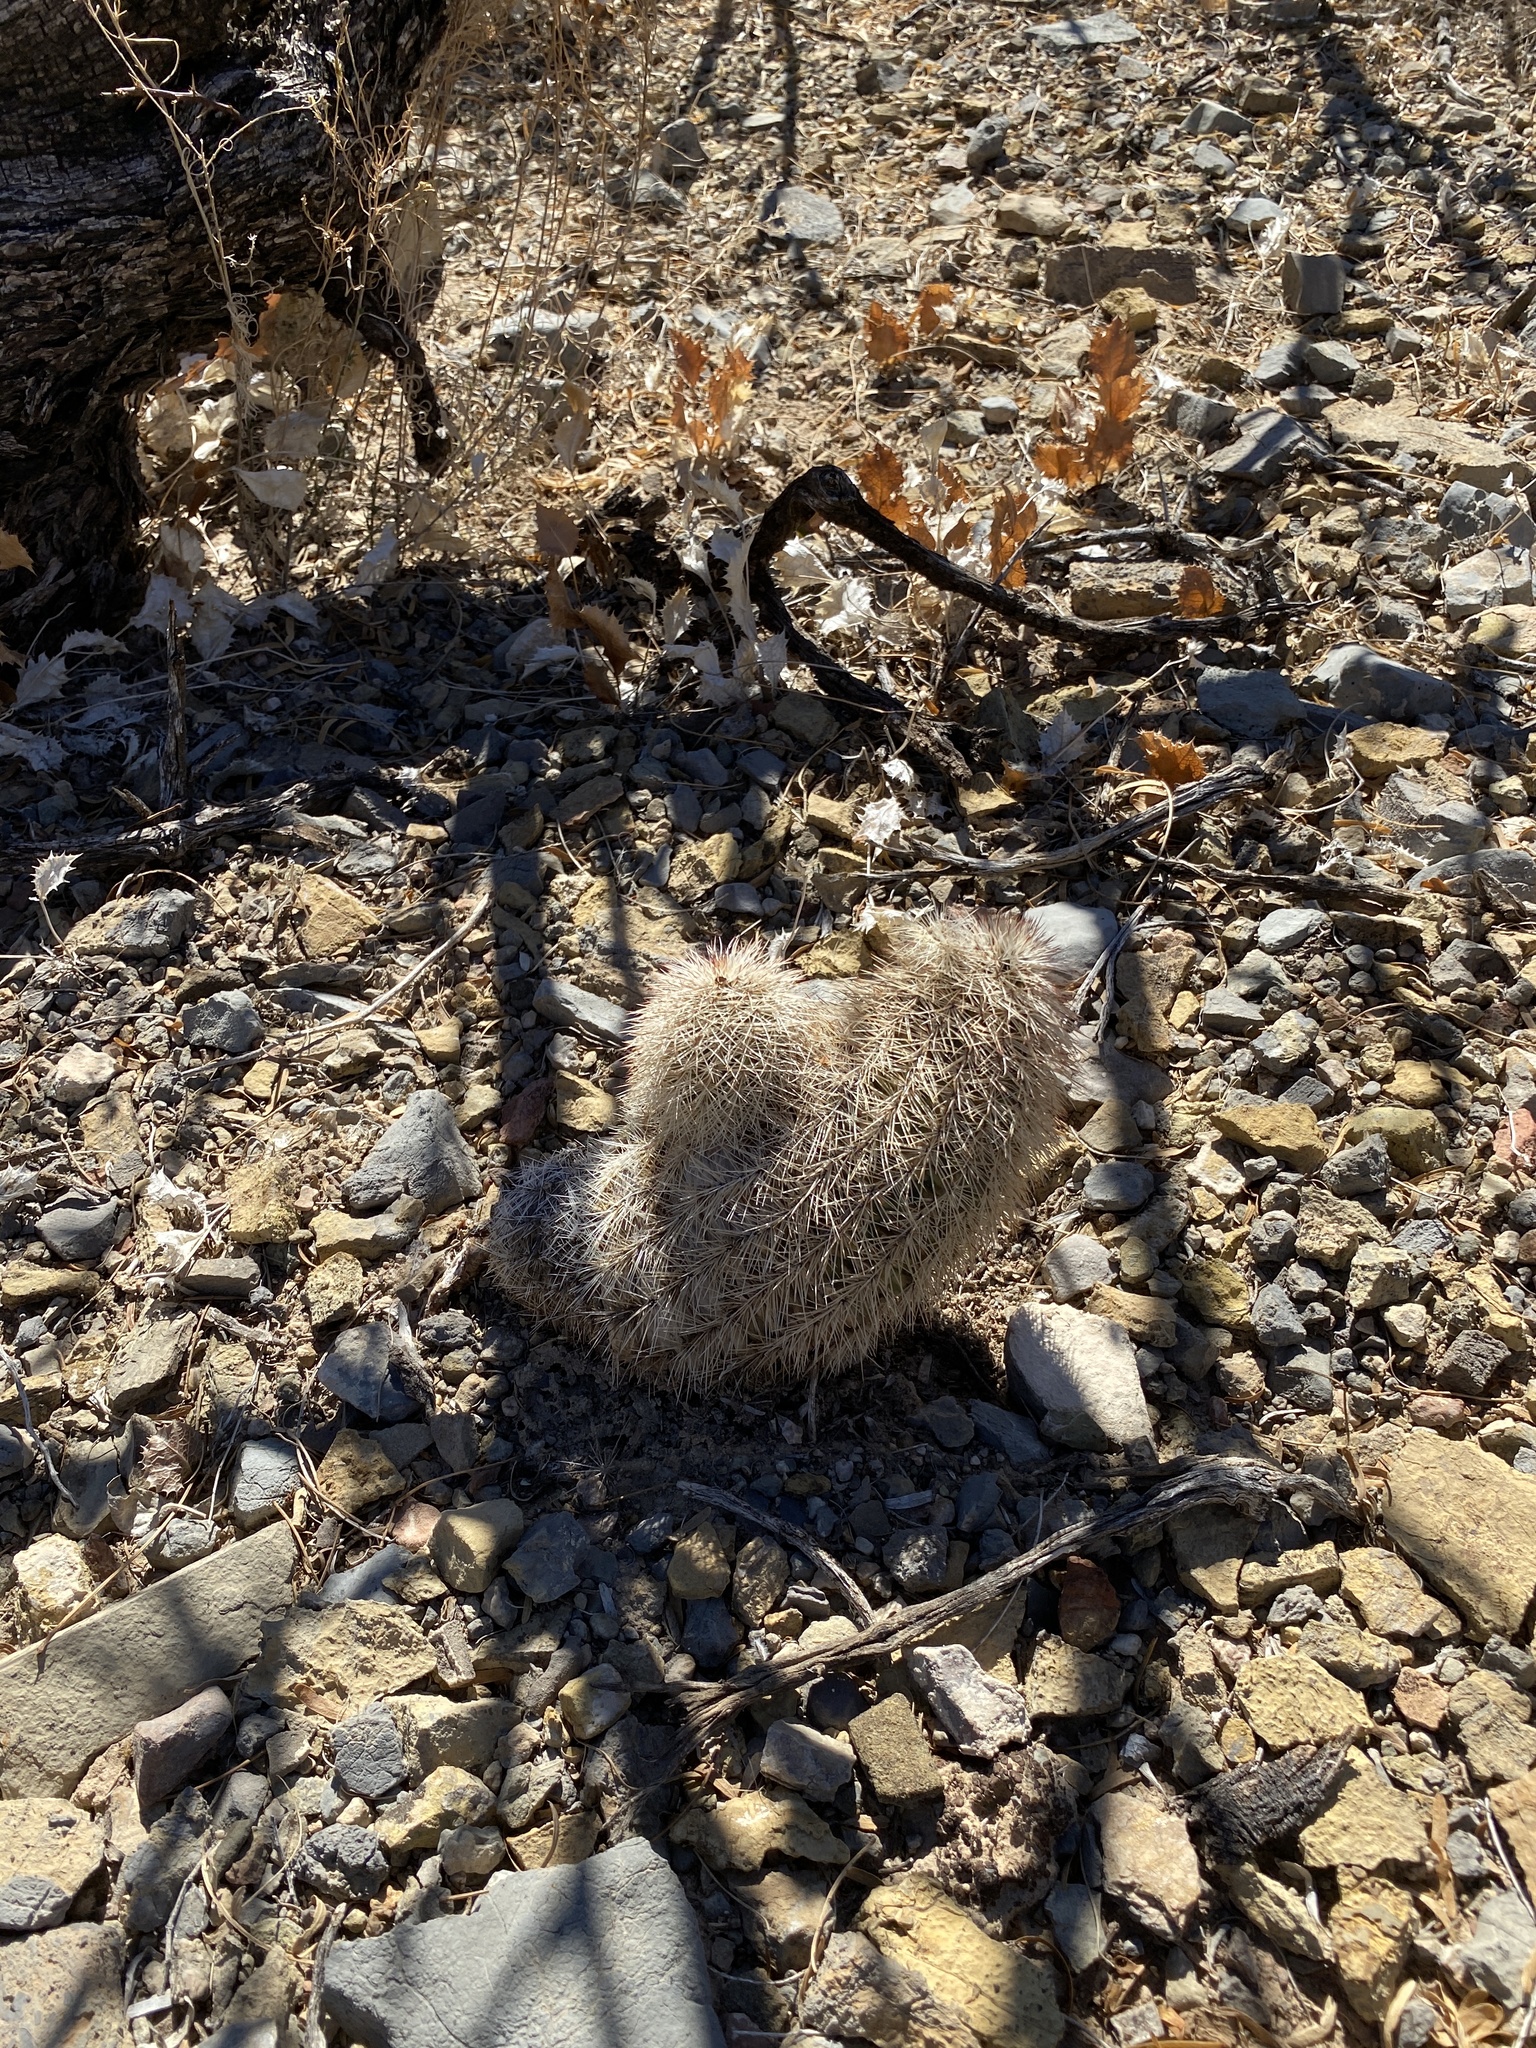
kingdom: Plantae
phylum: Tracheophyta
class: Magnoliopsida
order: Caryophyllales
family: Cactaceae
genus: Echinocereus
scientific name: Echinocereus dasyacanthus
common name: Spiny hedgehog cactus
